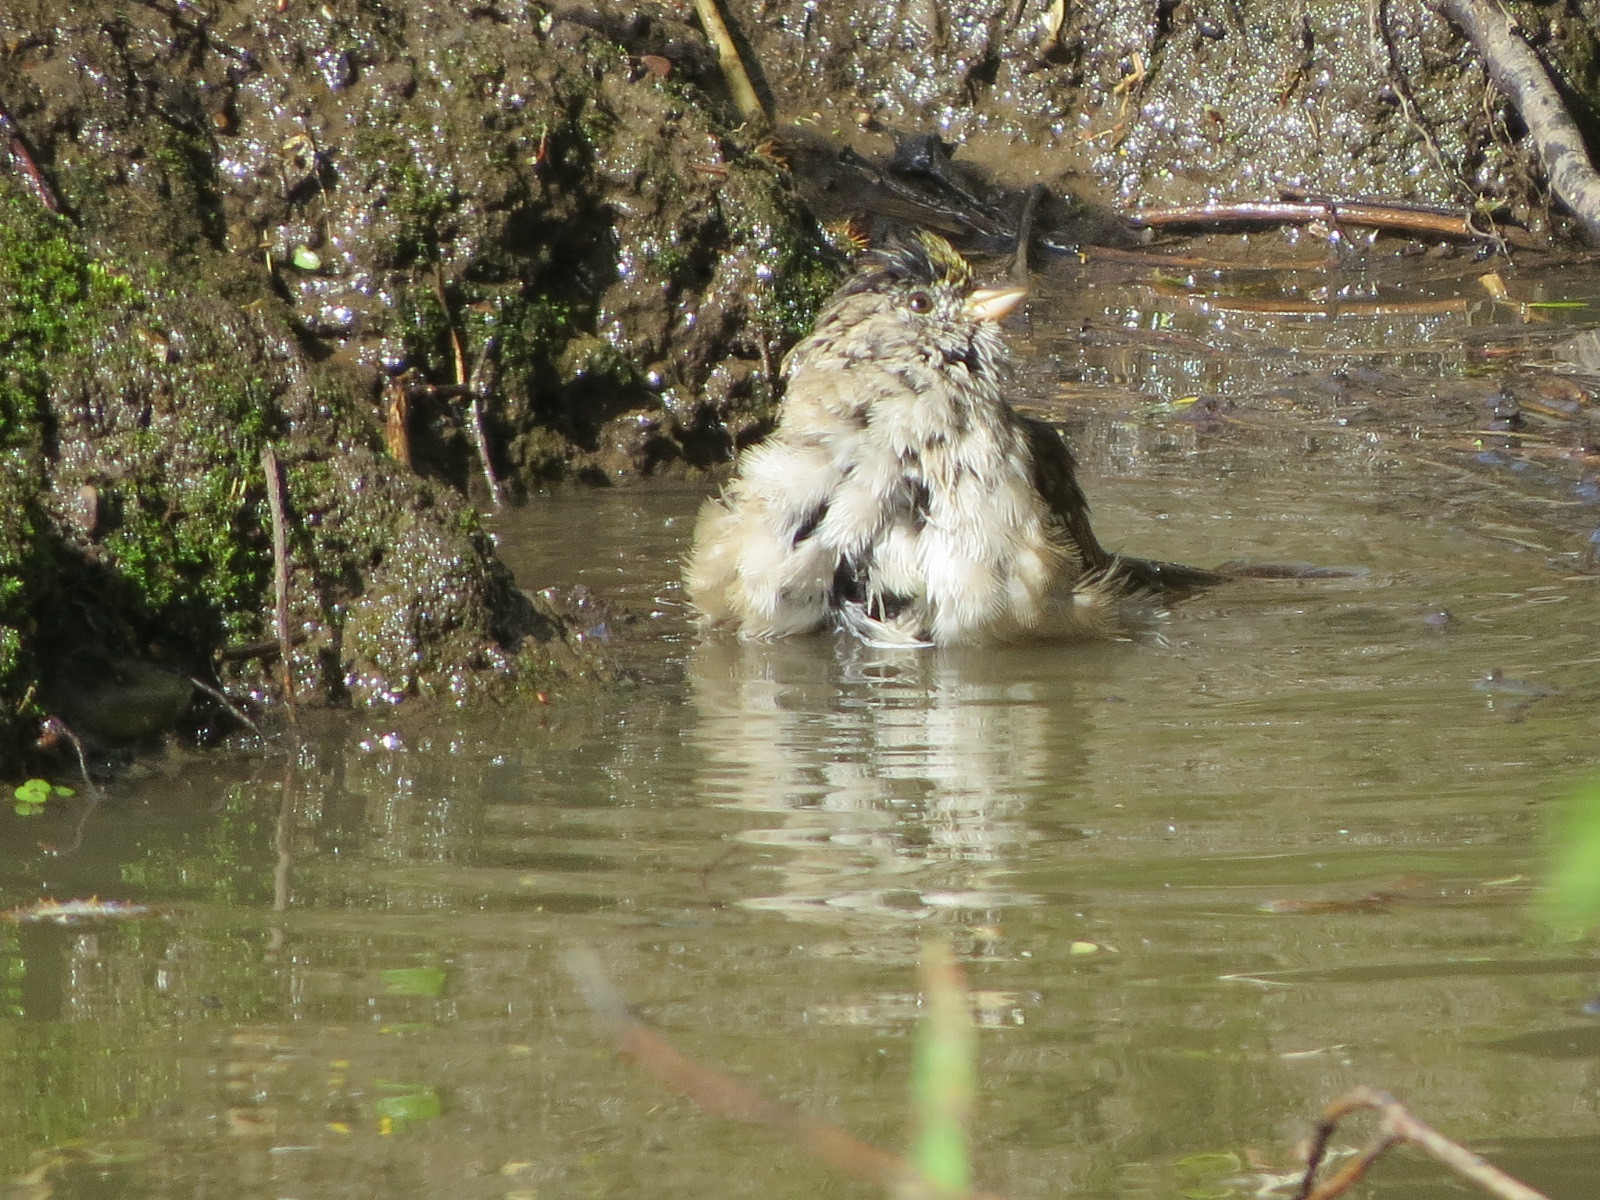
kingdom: Animalia
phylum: Chordata
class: Aves
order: Passeriformes
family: Passerellidae
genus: Zonotrichia
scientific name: Zonotrichia atricapilla
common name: Golden-crowned sparrow
